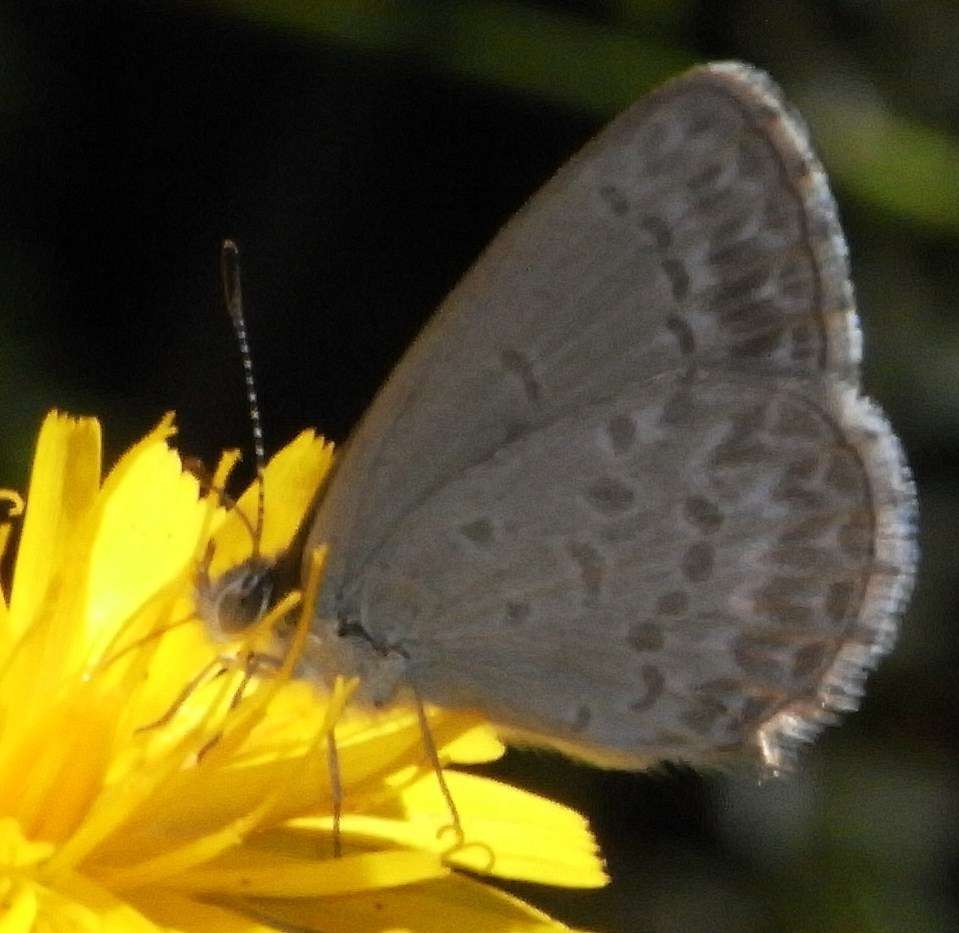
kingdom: Animalia
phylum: Arthropoda
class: Insecta
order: Lepidoptera
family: Lycaenidae
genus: Zizina
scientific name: Zizina labradus
